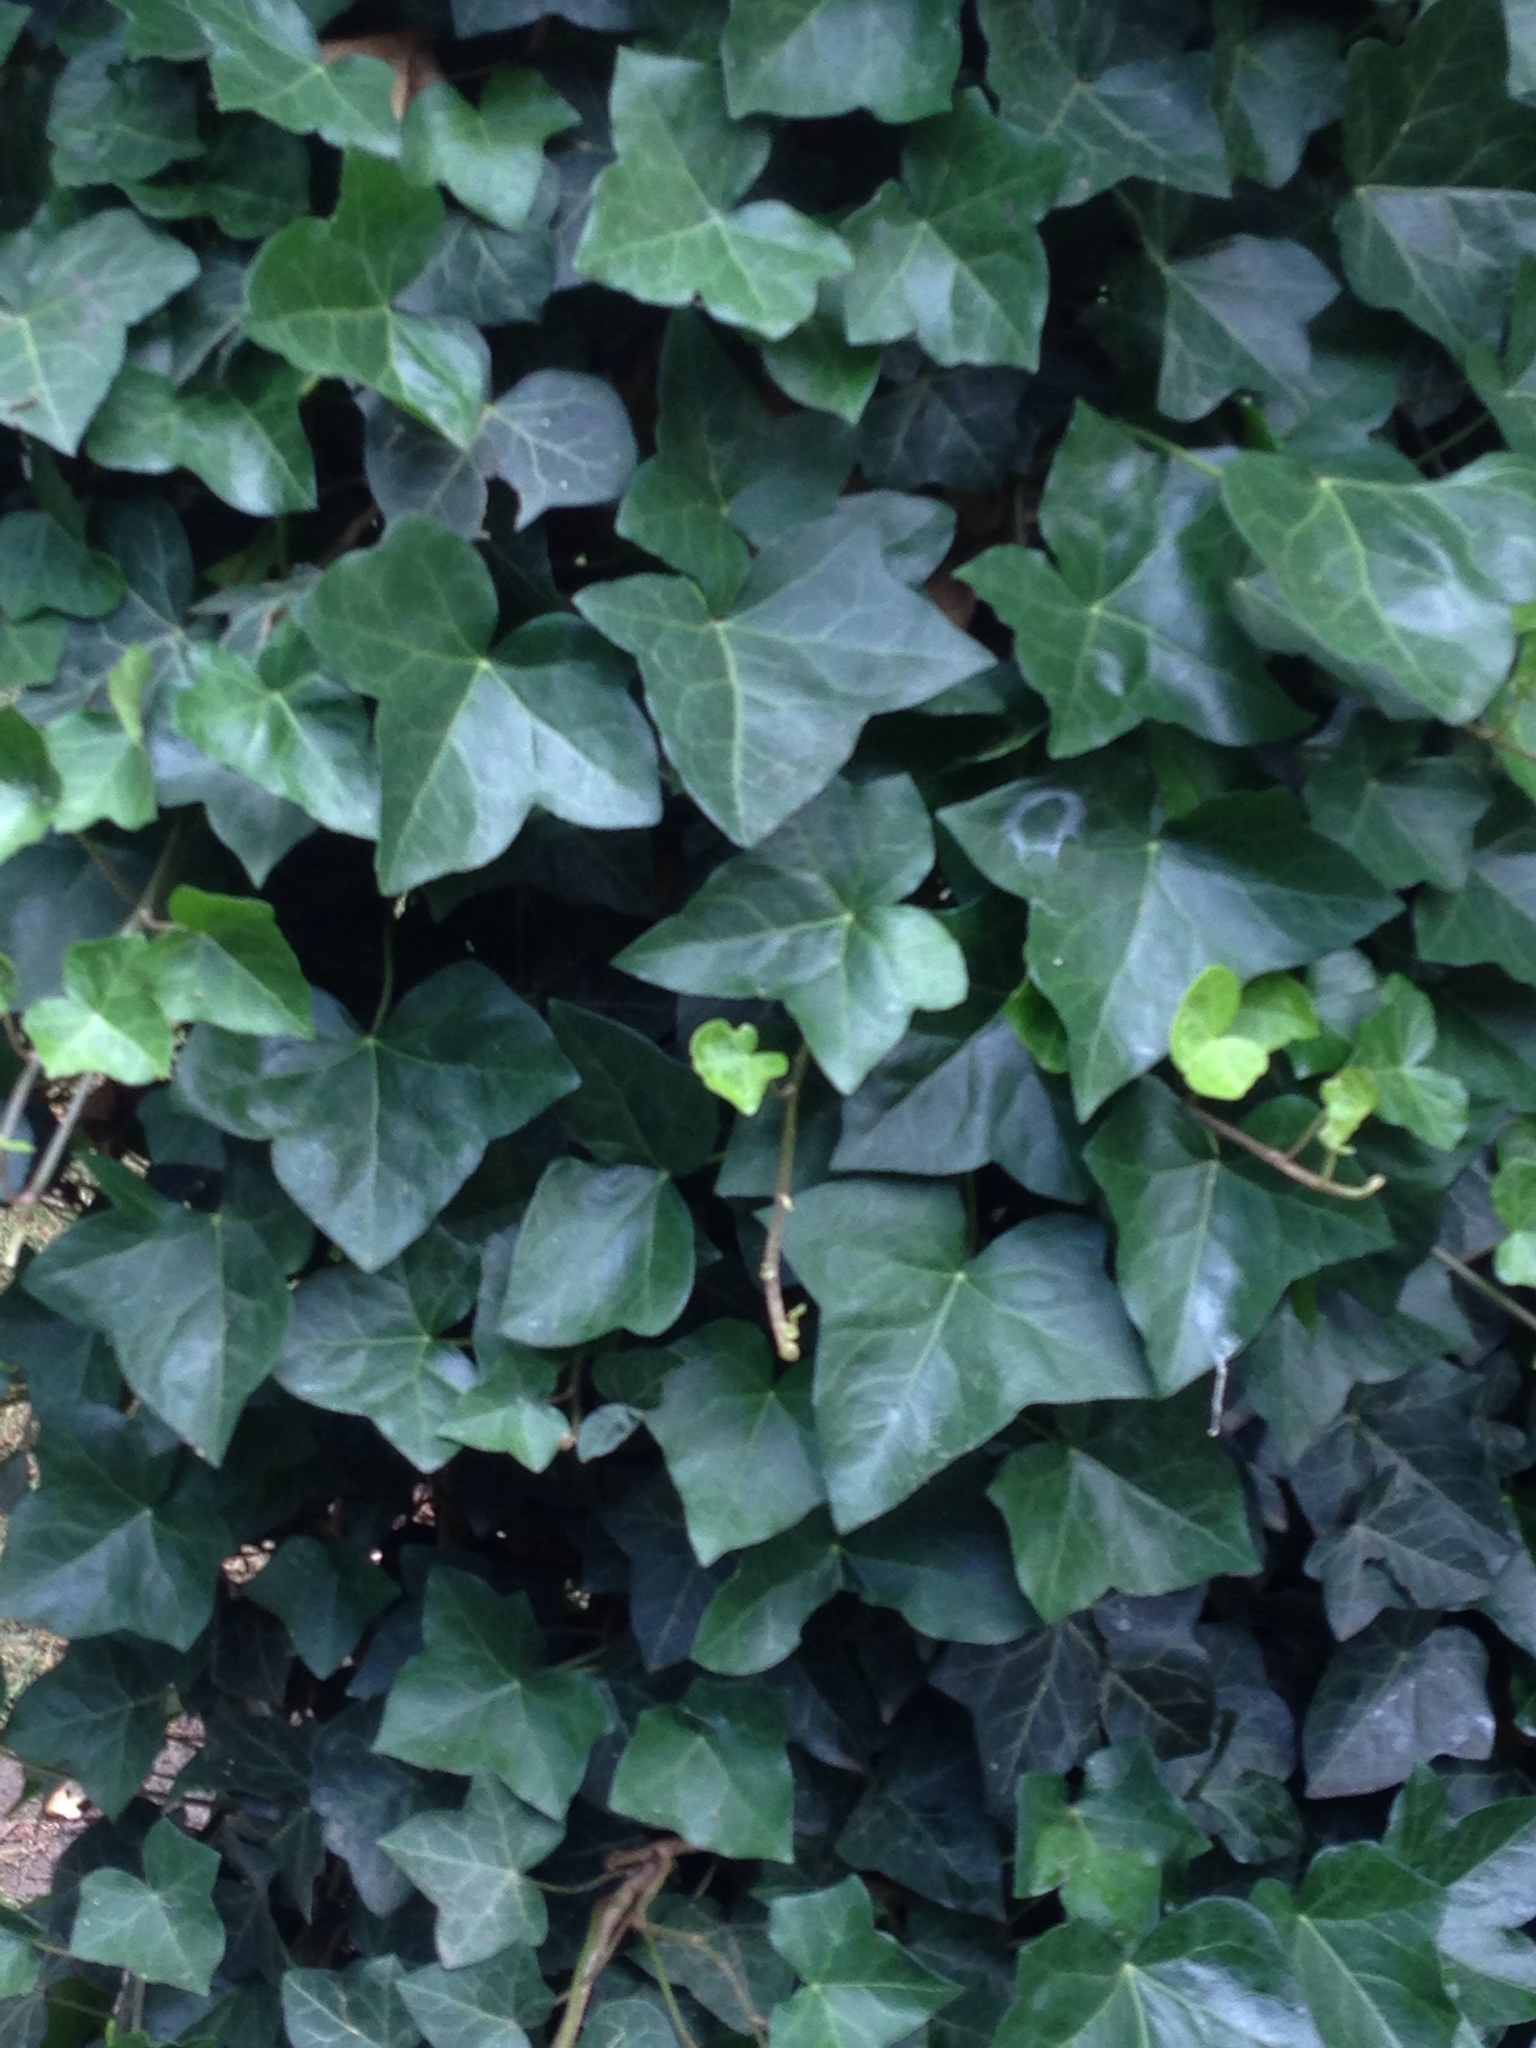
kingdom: Plantae
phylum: Tracheophyta
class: Magnoliopsida
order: Apiales
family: Araliaceae
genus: Hedera
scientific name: Hedera helix
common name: Ivy
